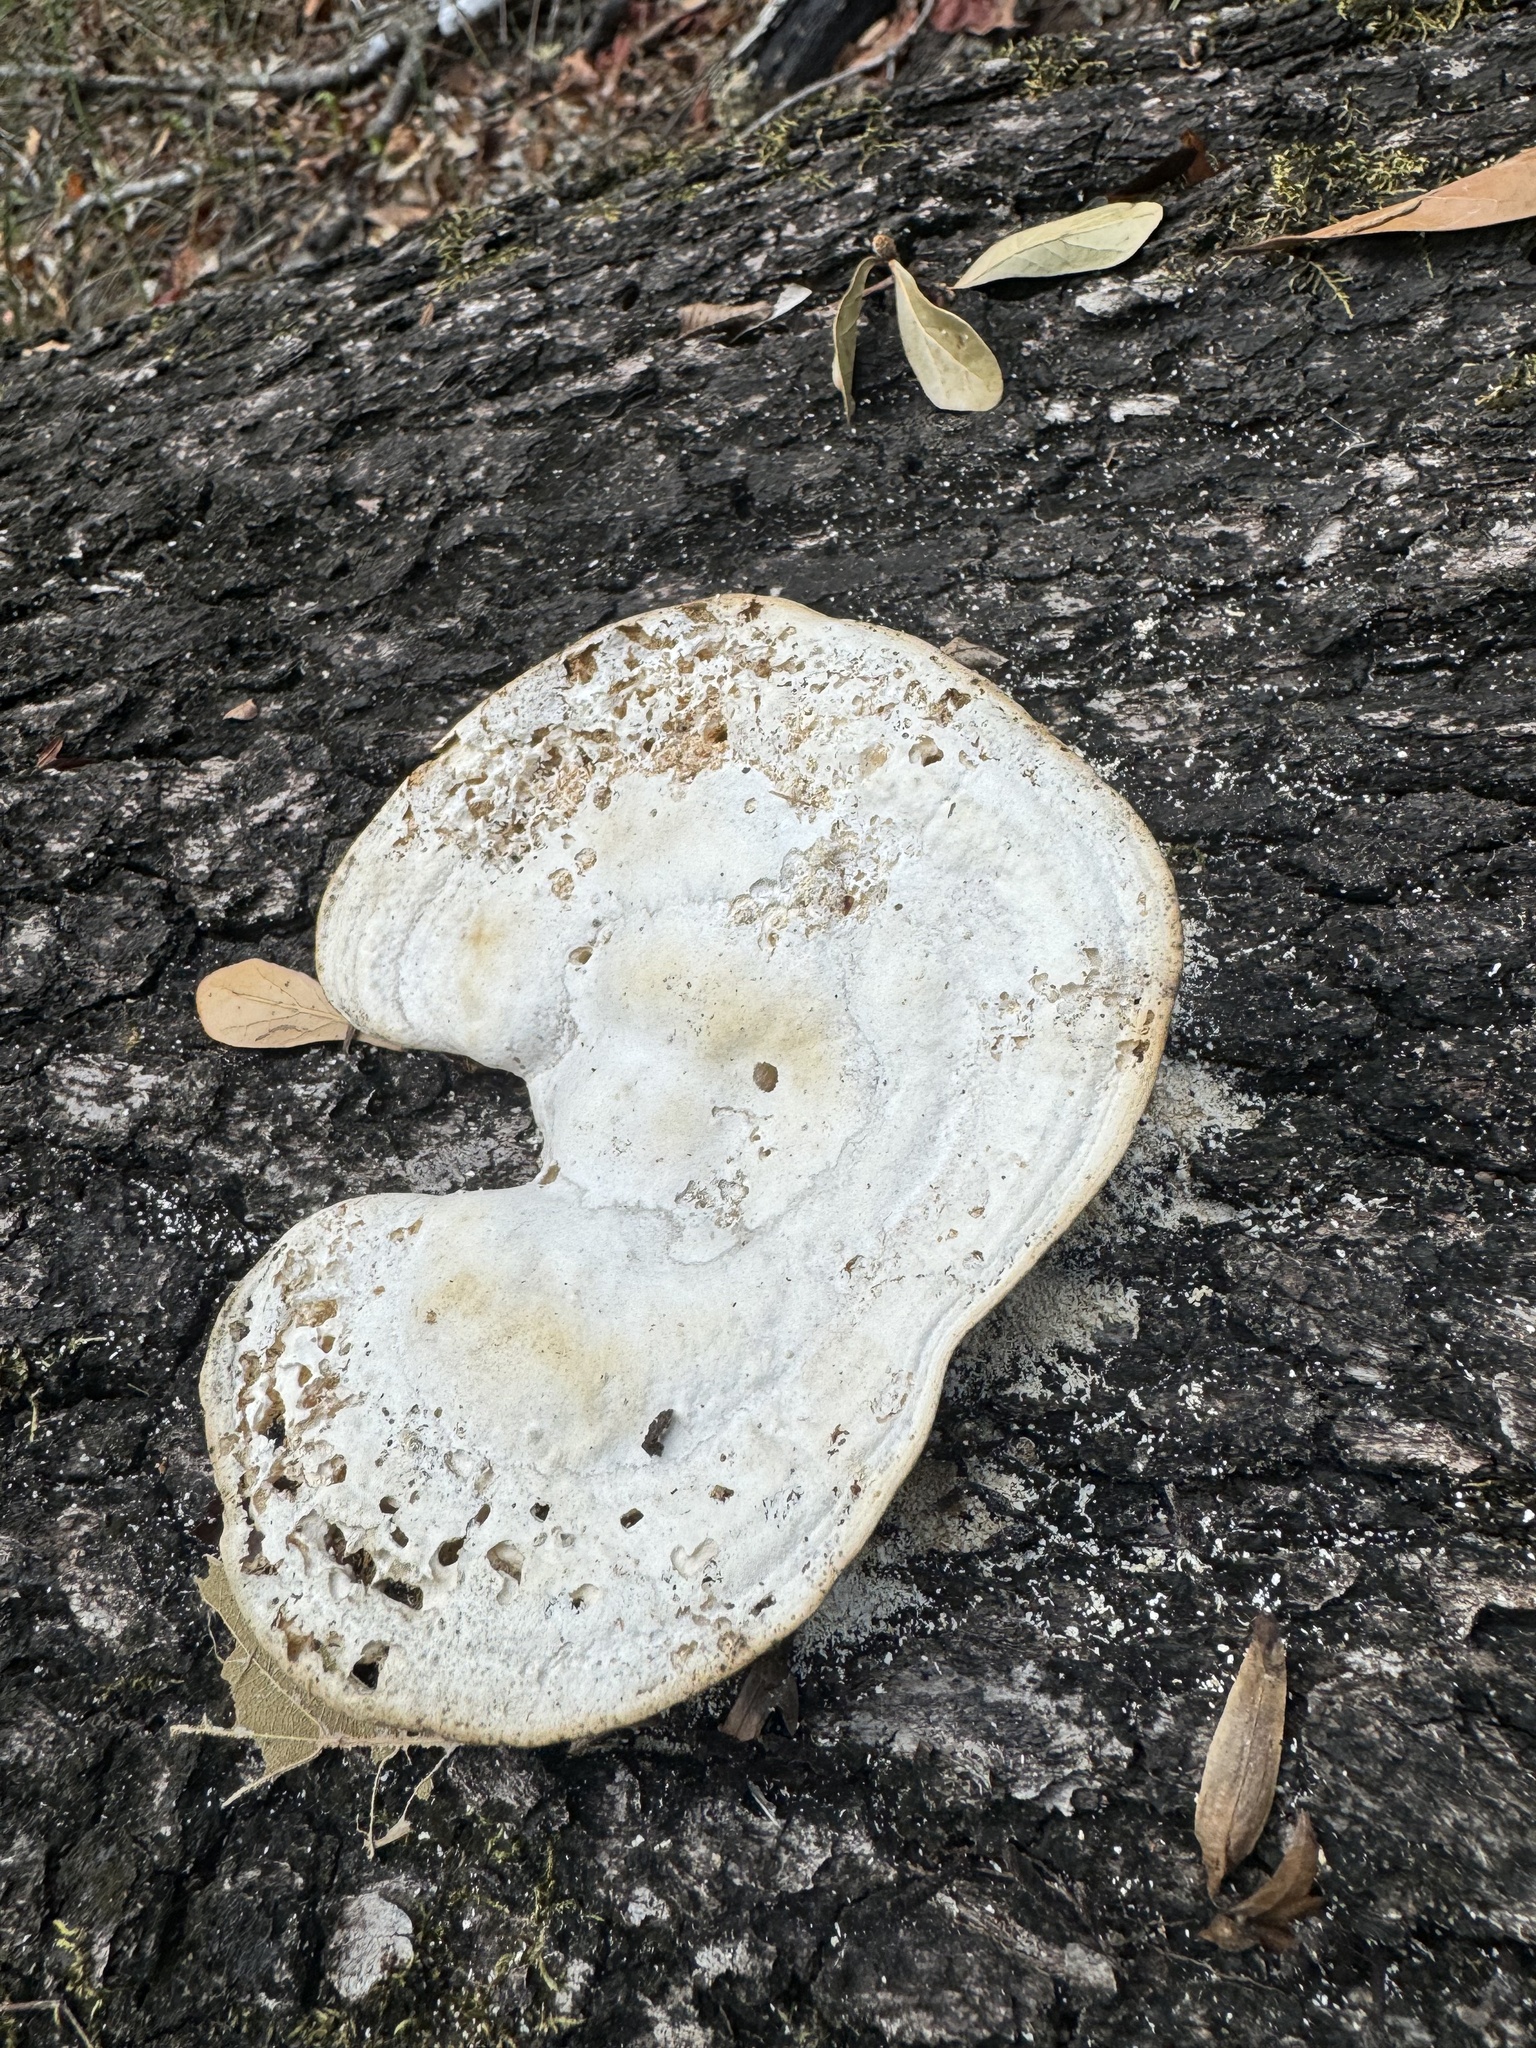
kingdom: Fungi
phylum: Basidiomycota
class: Agaricomycetes
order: Polyporales
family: Polyporaceae
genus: Trametes
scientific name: Trametes
